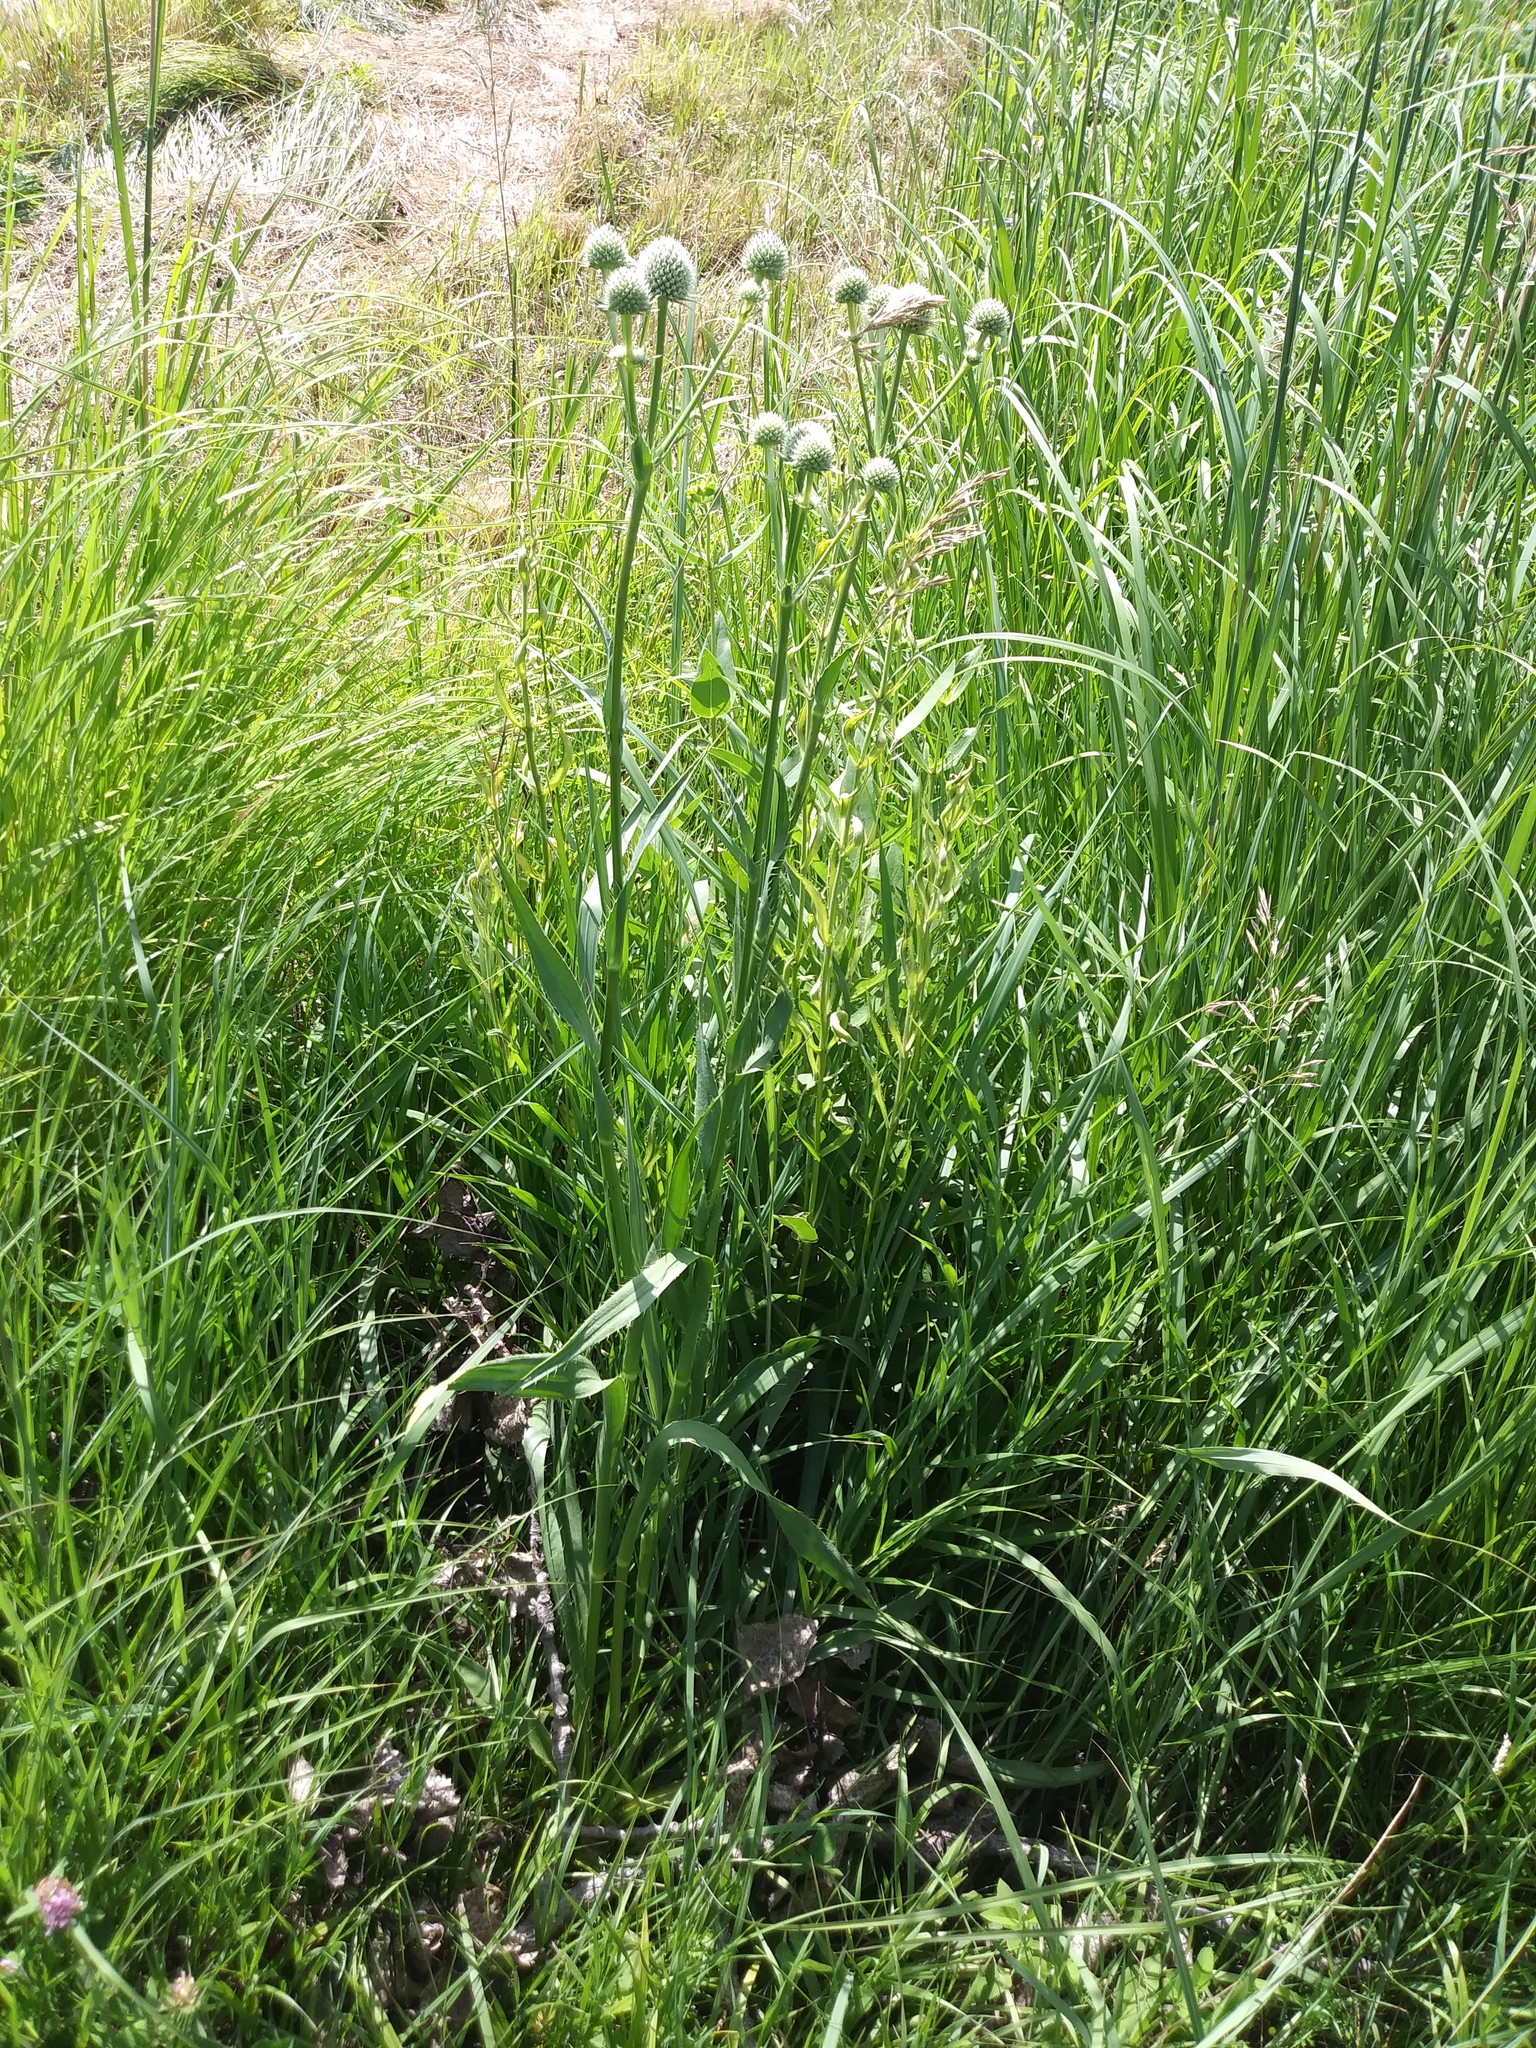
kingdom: Plantae
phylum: Tracheophyta
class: Magnoliopsida
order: Apiales
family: Apiaceae
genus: Eryngium
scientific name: Eryngium yuccifolium
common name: Button eryngo
